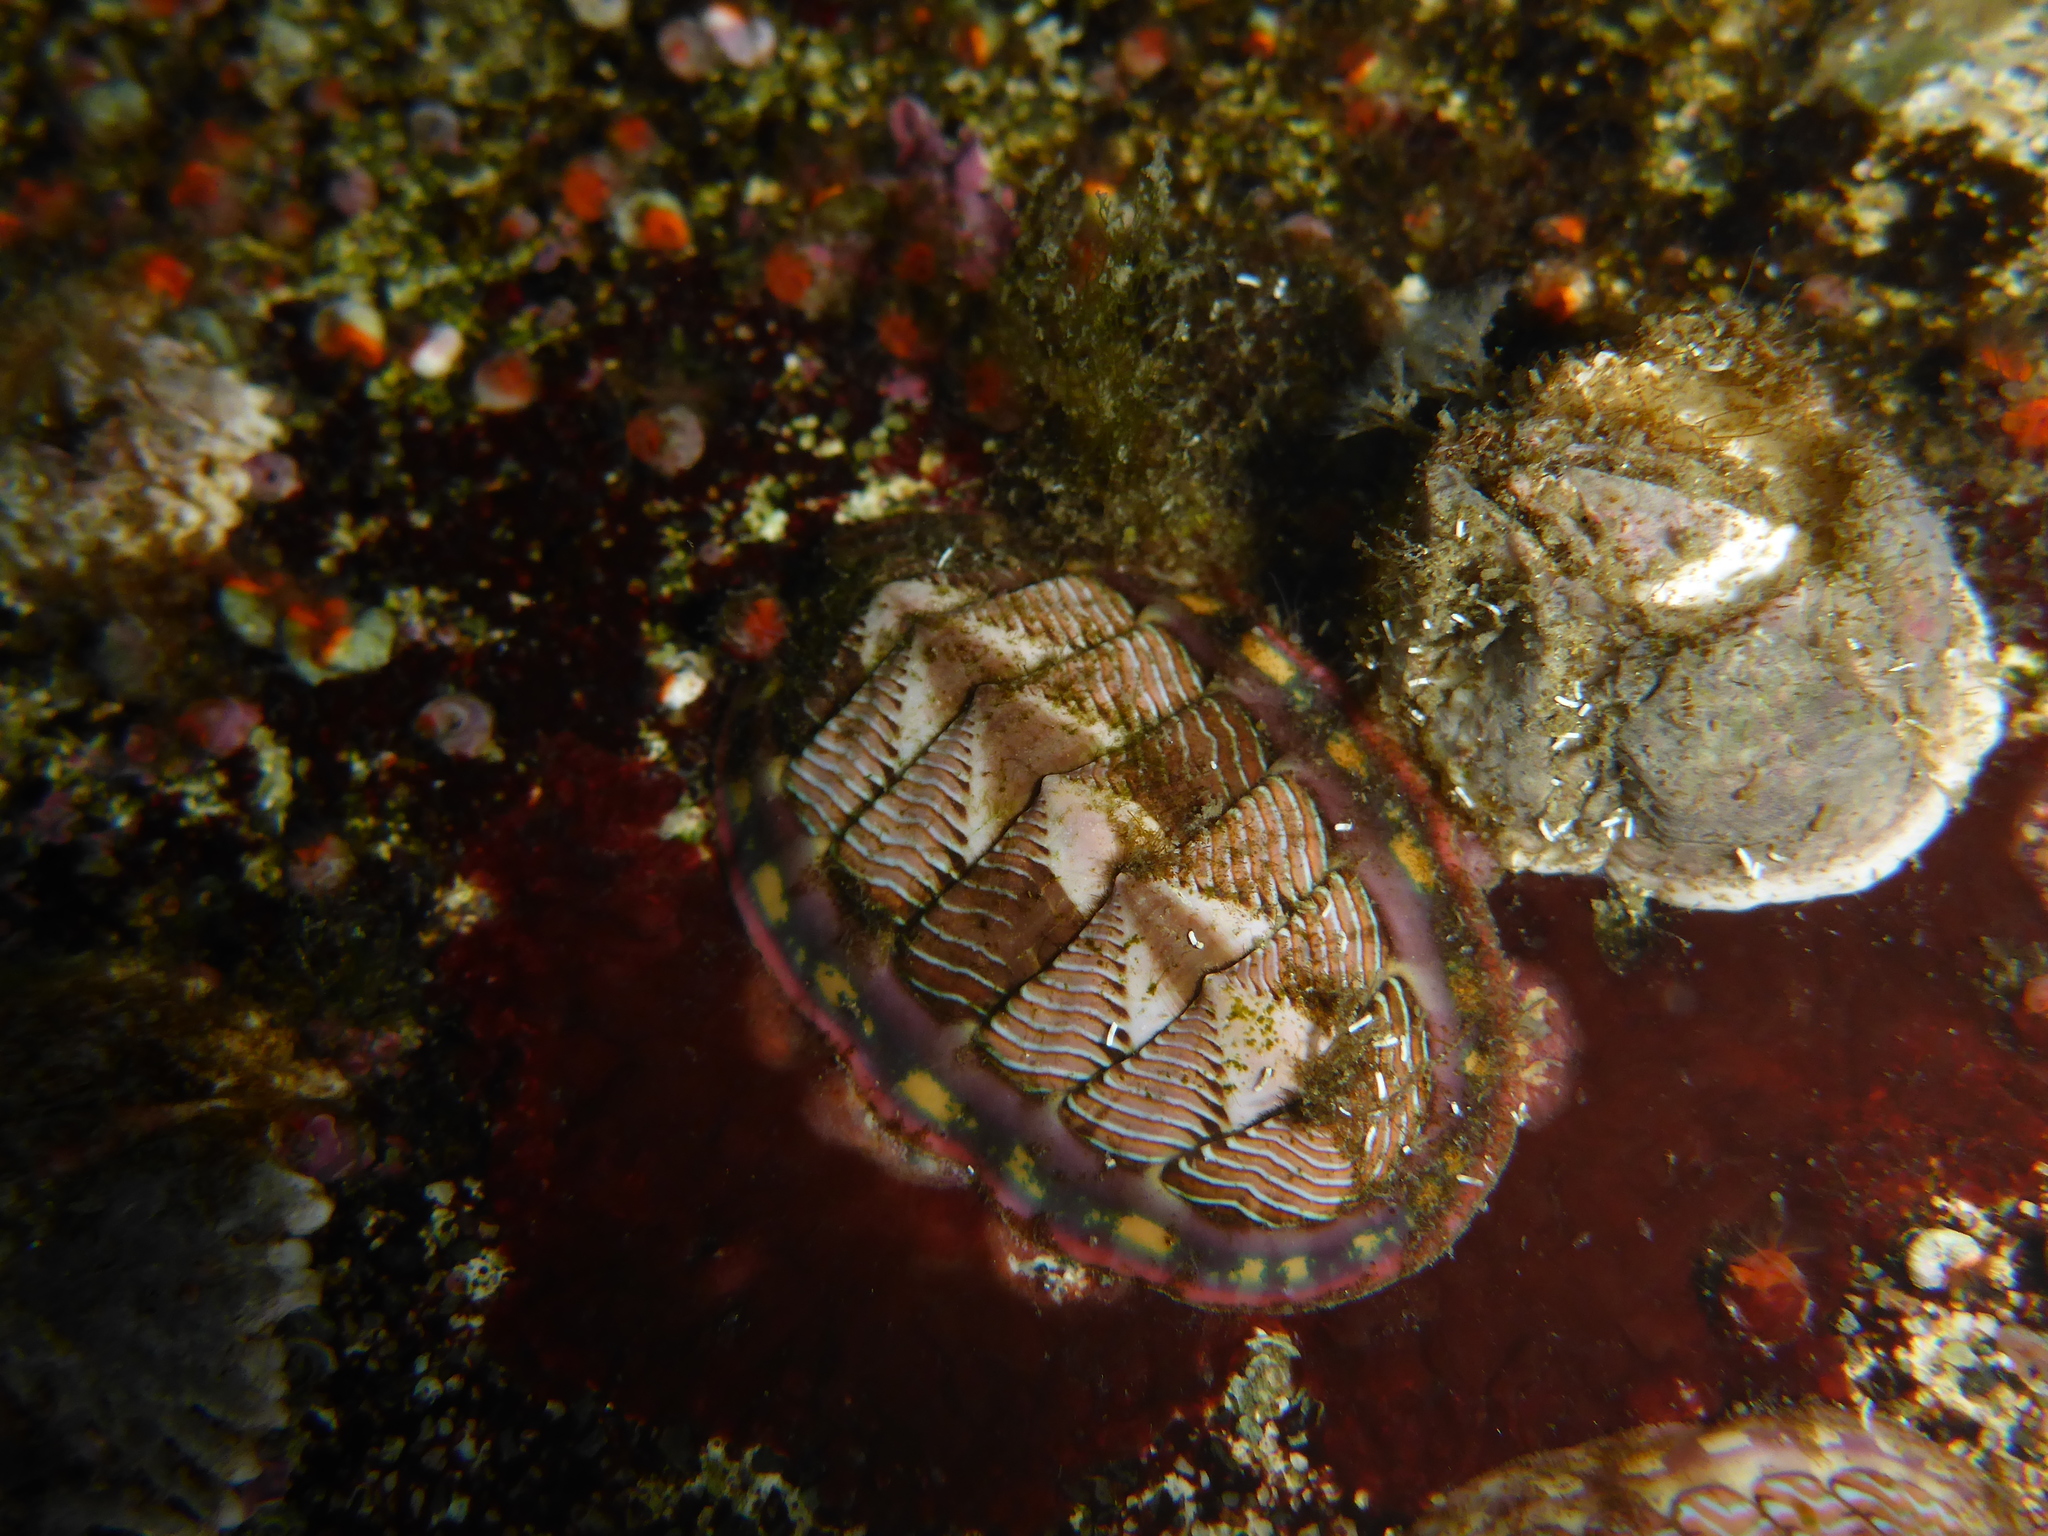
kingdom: Animalia
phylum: Mollusca
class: Polyplacophora
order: Chitonida
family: Tonicellidae
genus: Tonicella
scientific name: Tonicella lineata
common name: Lined chiton
